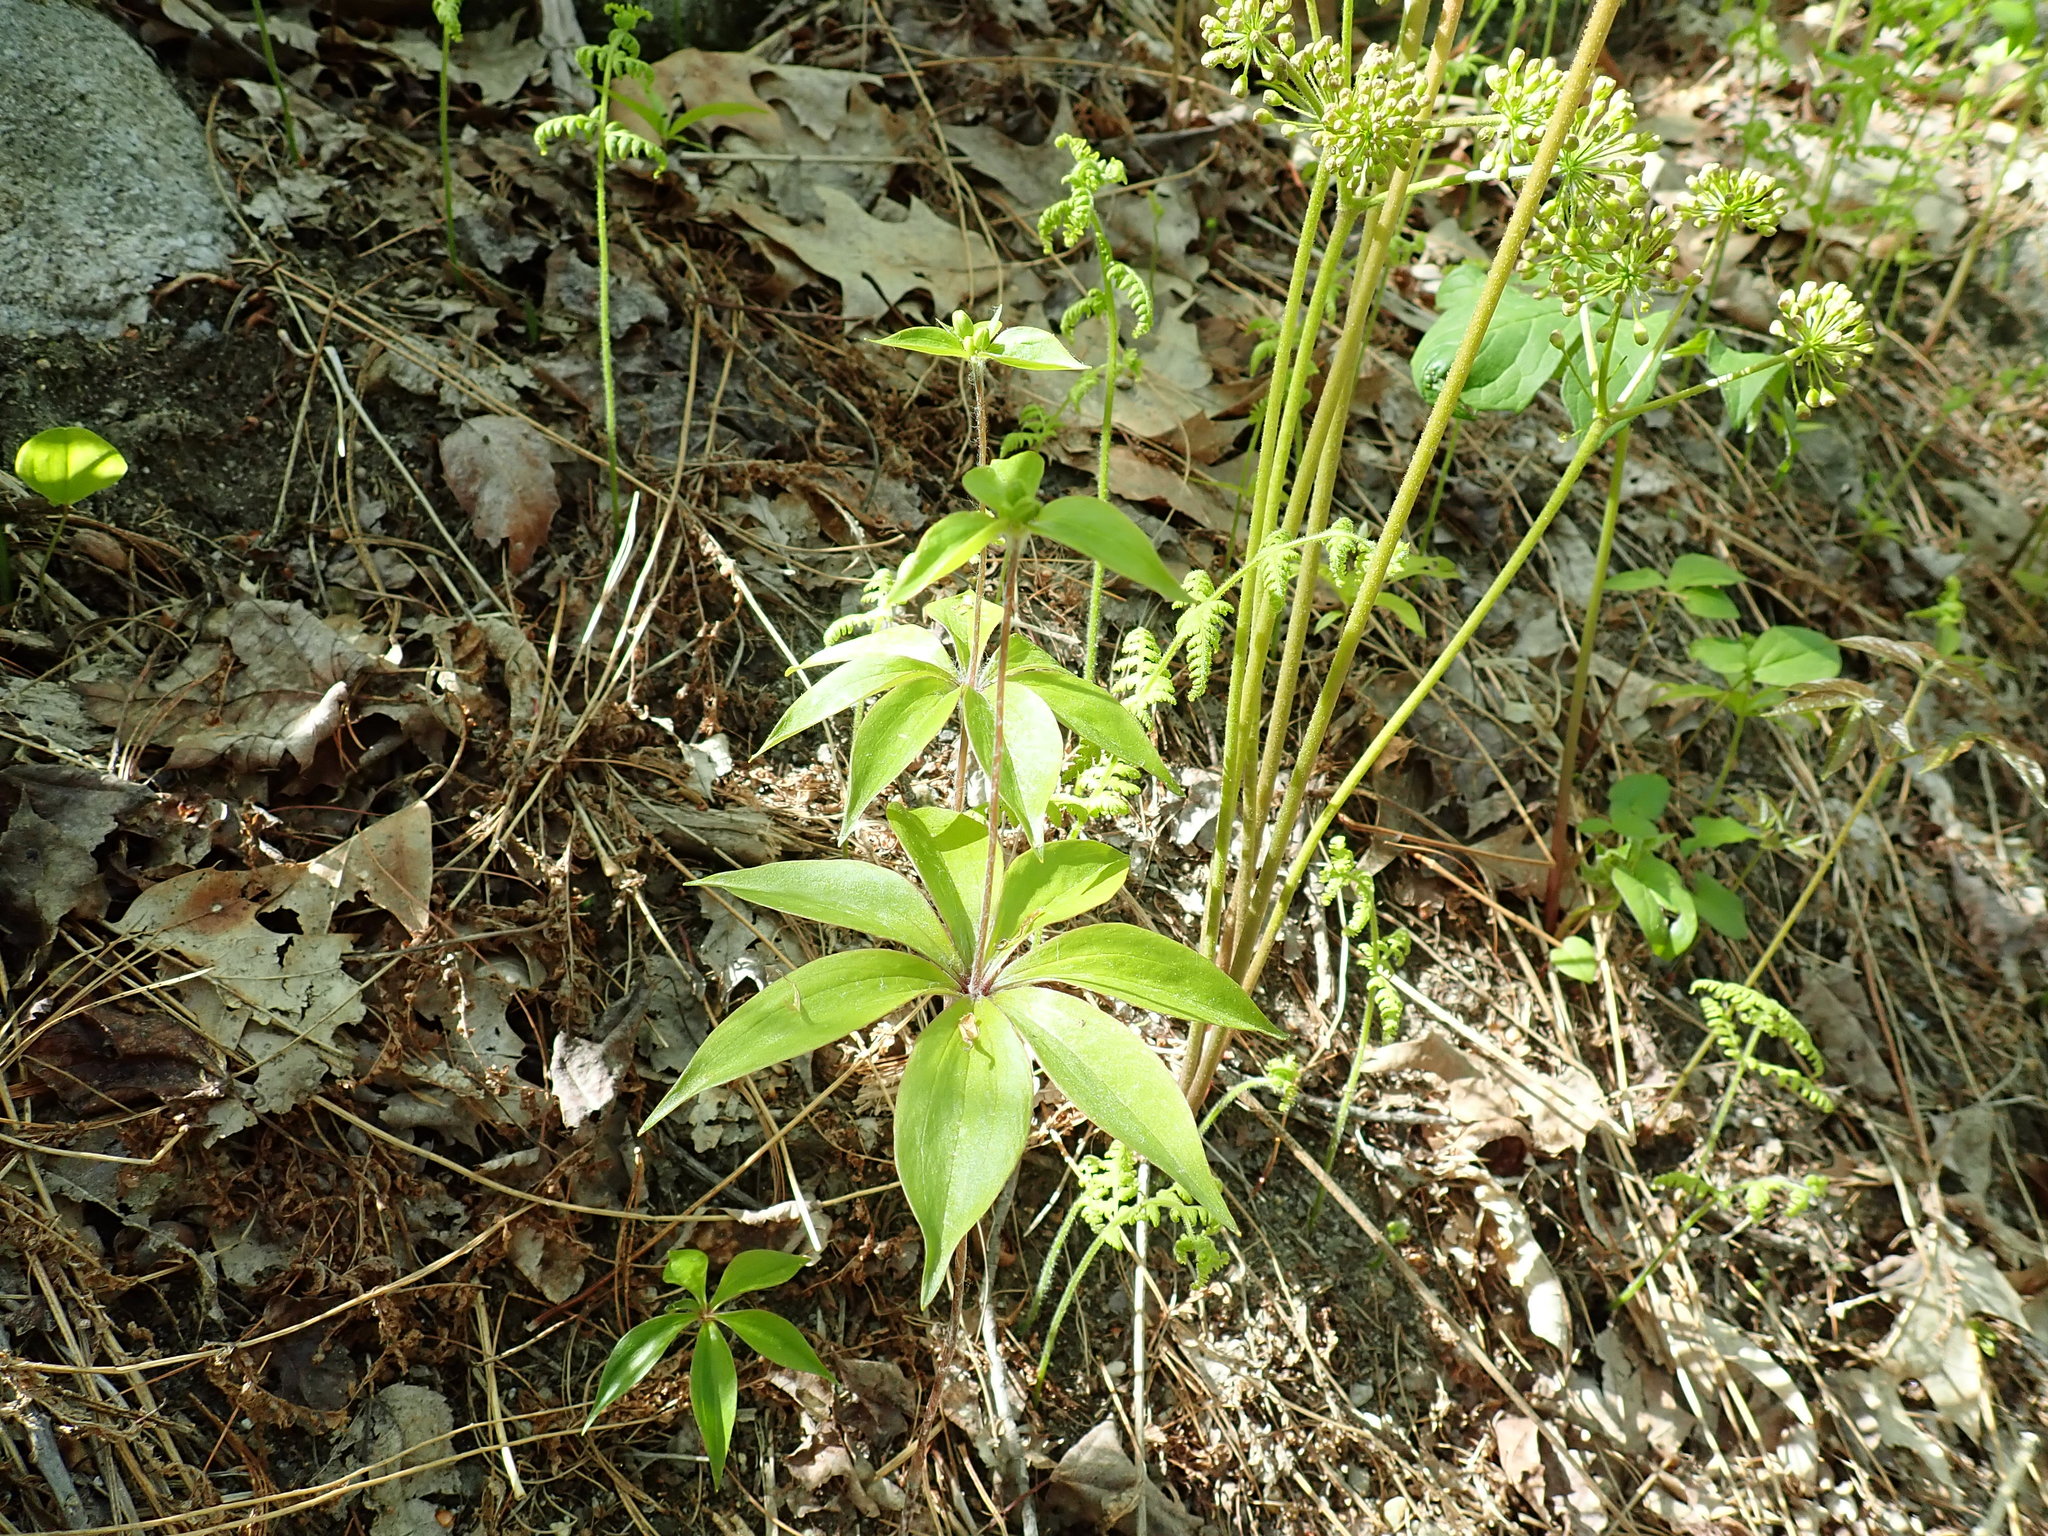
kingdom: Plantae
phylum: Tracheophyta
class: Liliopsida
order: Liliales
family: Liliaceae
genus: Medeola
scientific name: Medeola virginiana
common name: Indian cucumber-root
